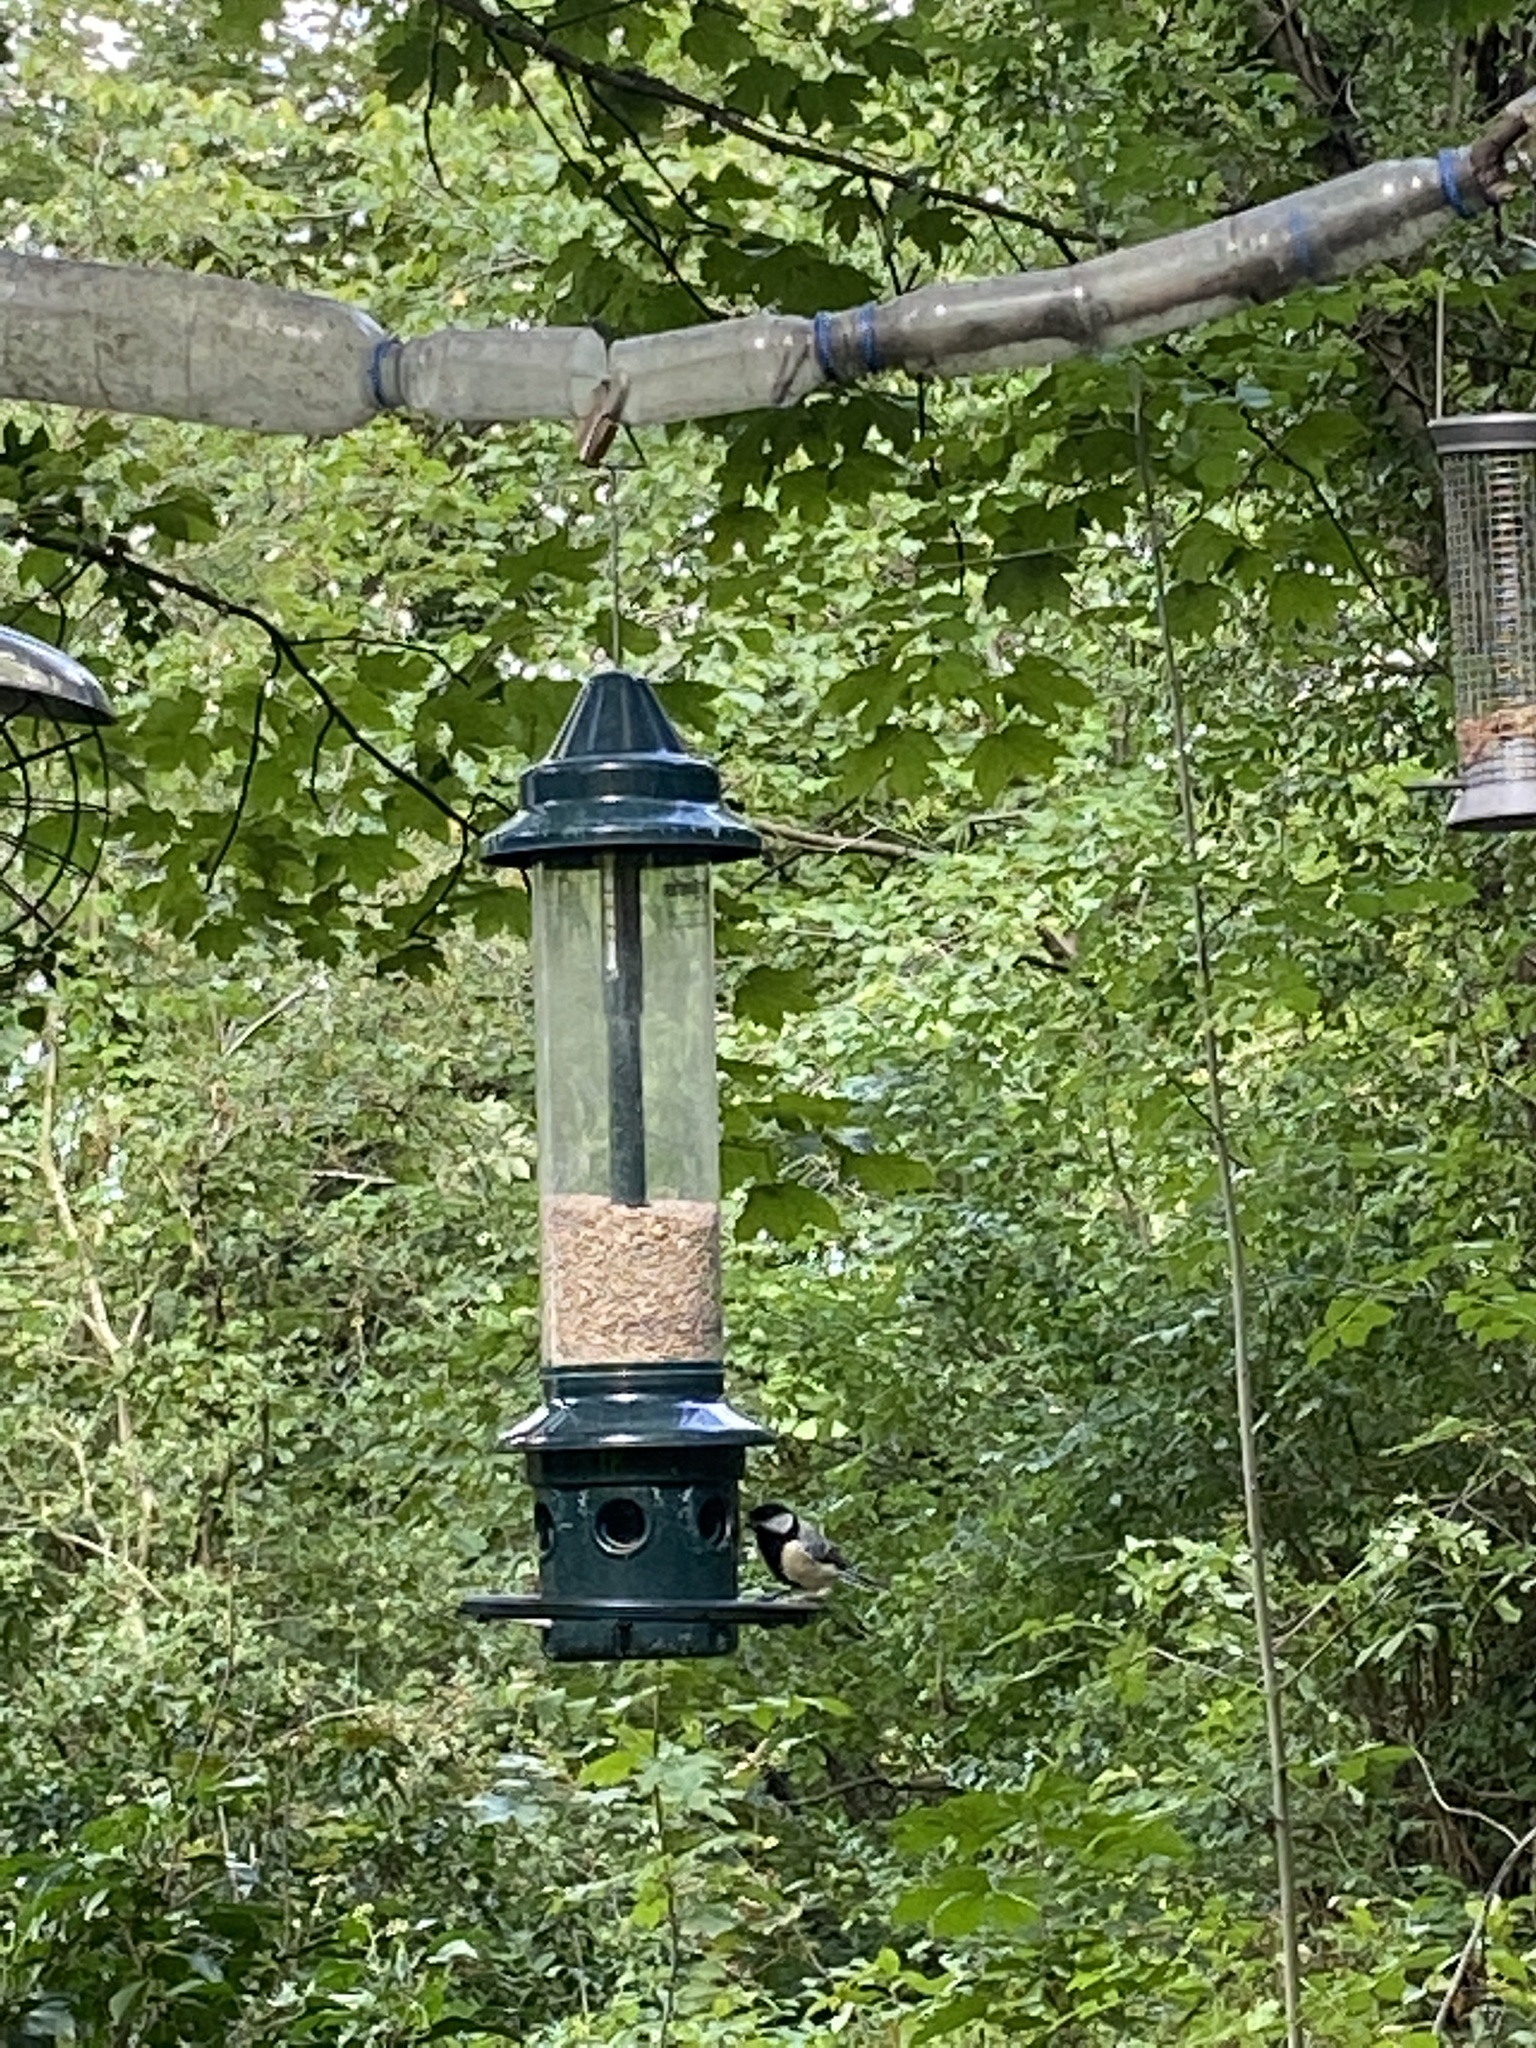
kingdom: Animalia
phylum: Chordata
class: Aves
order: Passeriformes
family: Paridae
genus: Parus
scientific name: Parus major
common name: Great tit
